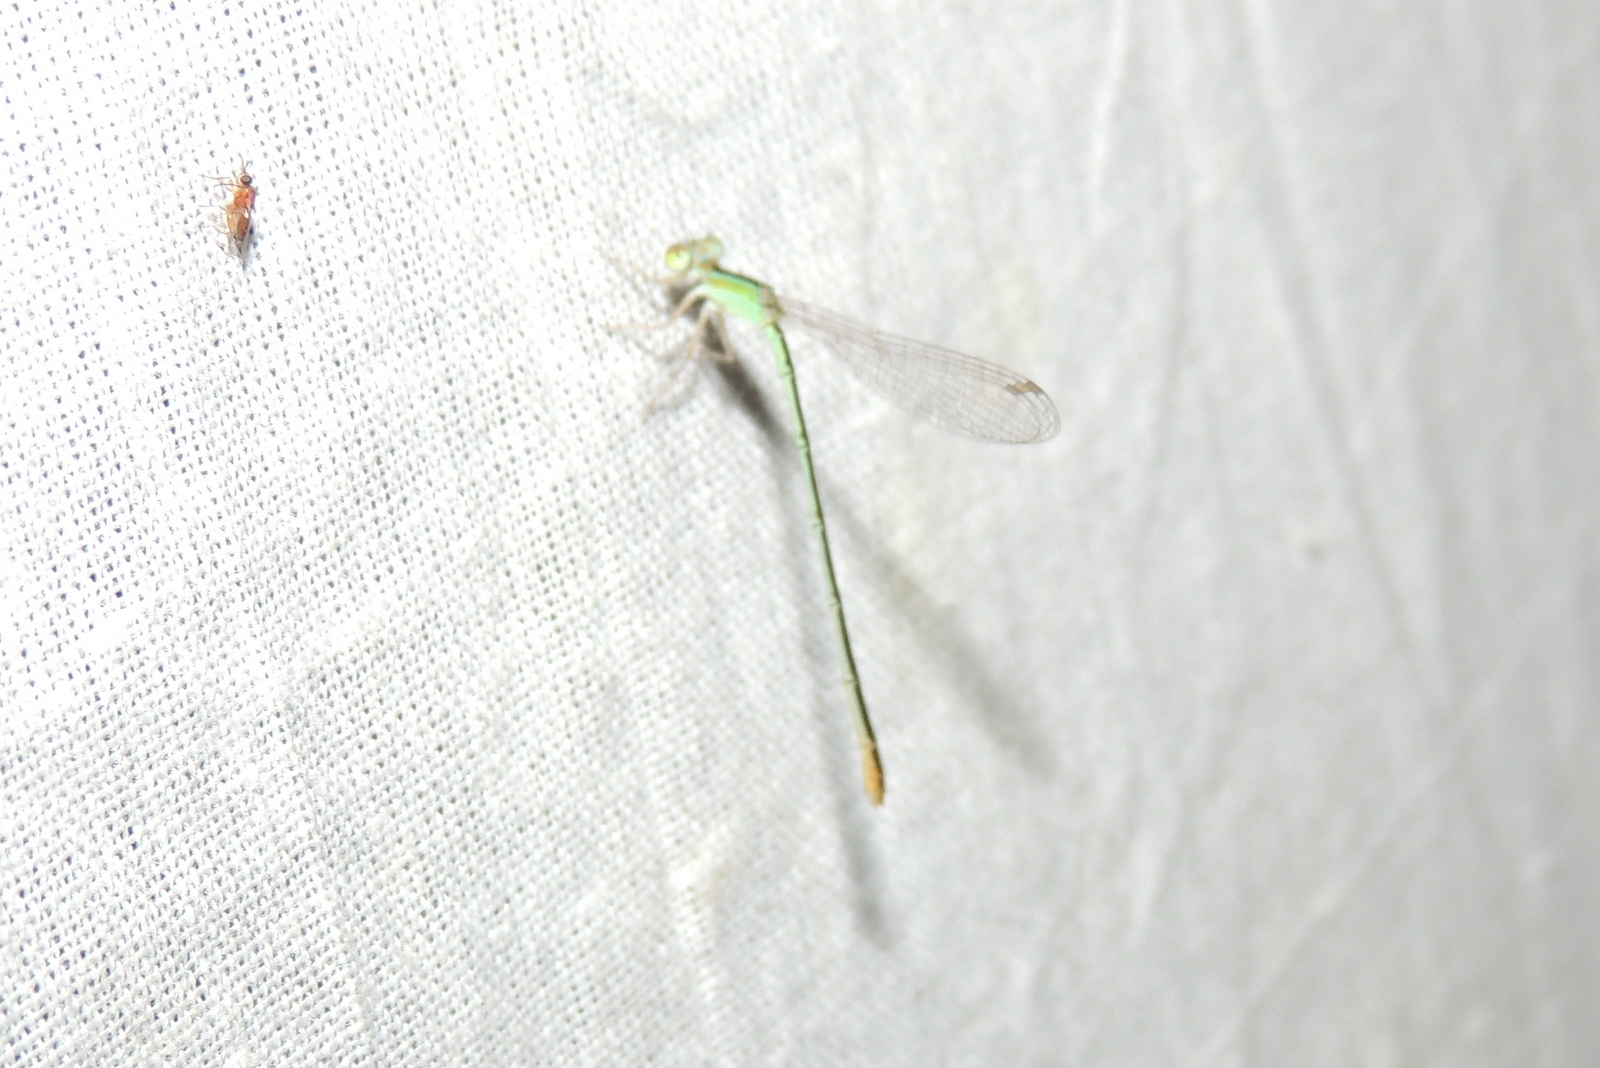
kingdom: Animalia
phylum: Arthropoda
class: Insecta
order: Odonata
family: Coenagrionidae
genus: Agriocnemis
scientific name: Agriocnemis pygmaea
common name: Pygmy wisp
